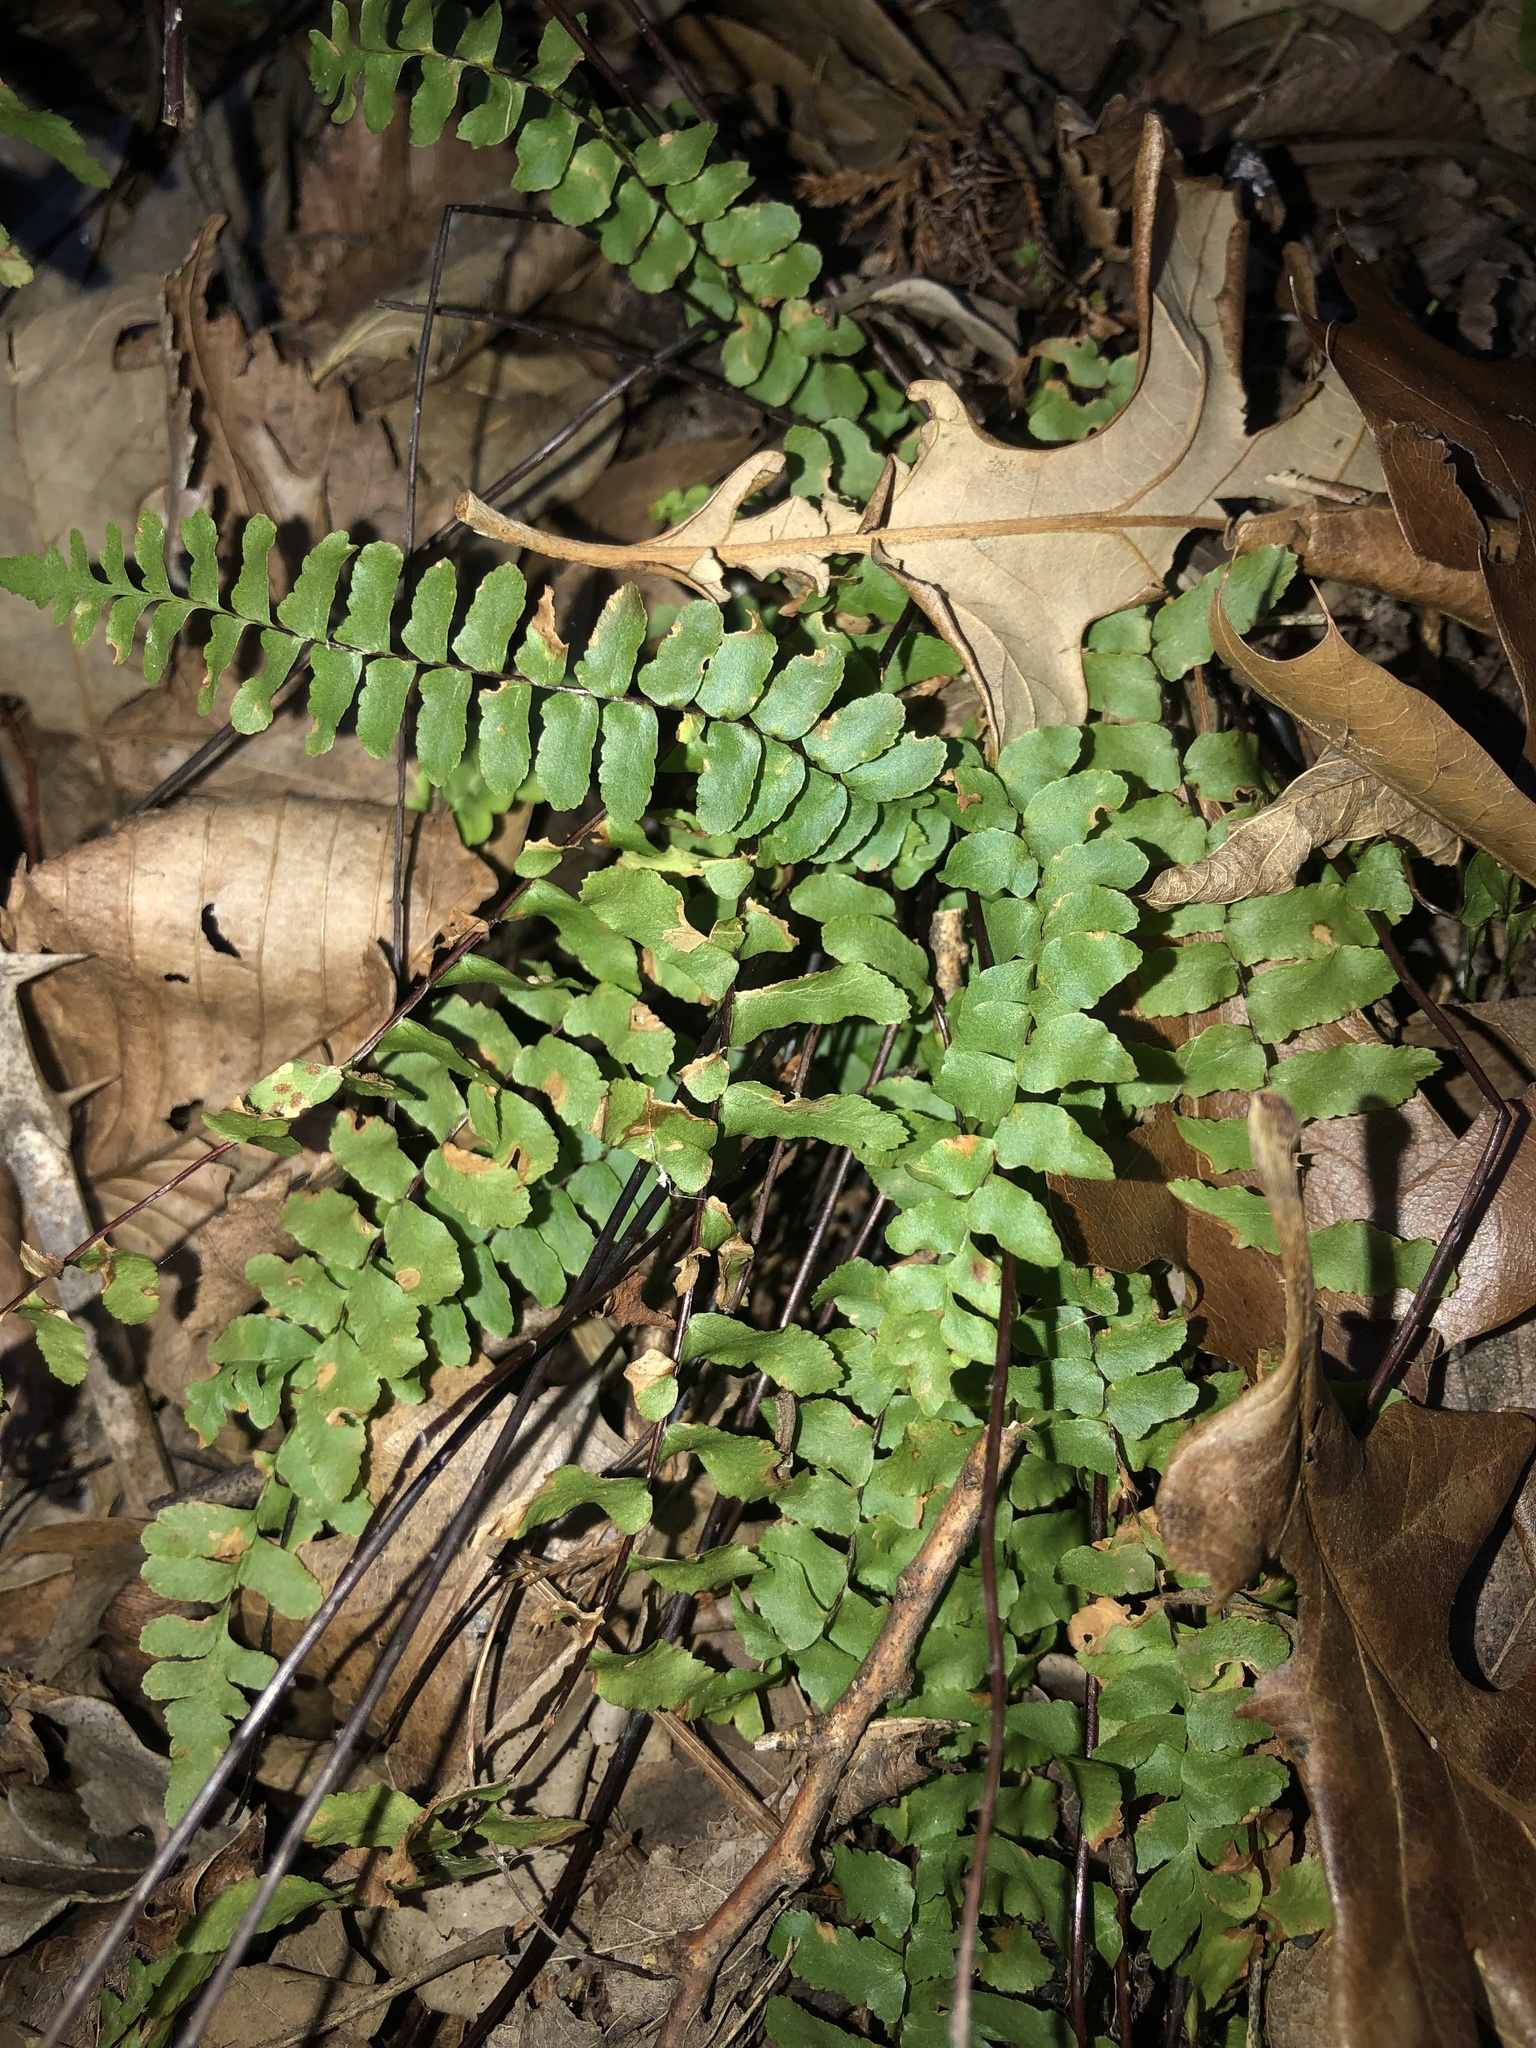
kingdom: Plantae
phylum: Tracheophyta
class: Polypodiopsida
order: Polypodiales
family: Aspleniaceae
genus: Asplenium
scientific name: Asplenium platyneuron
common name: Ebony spleenwort
